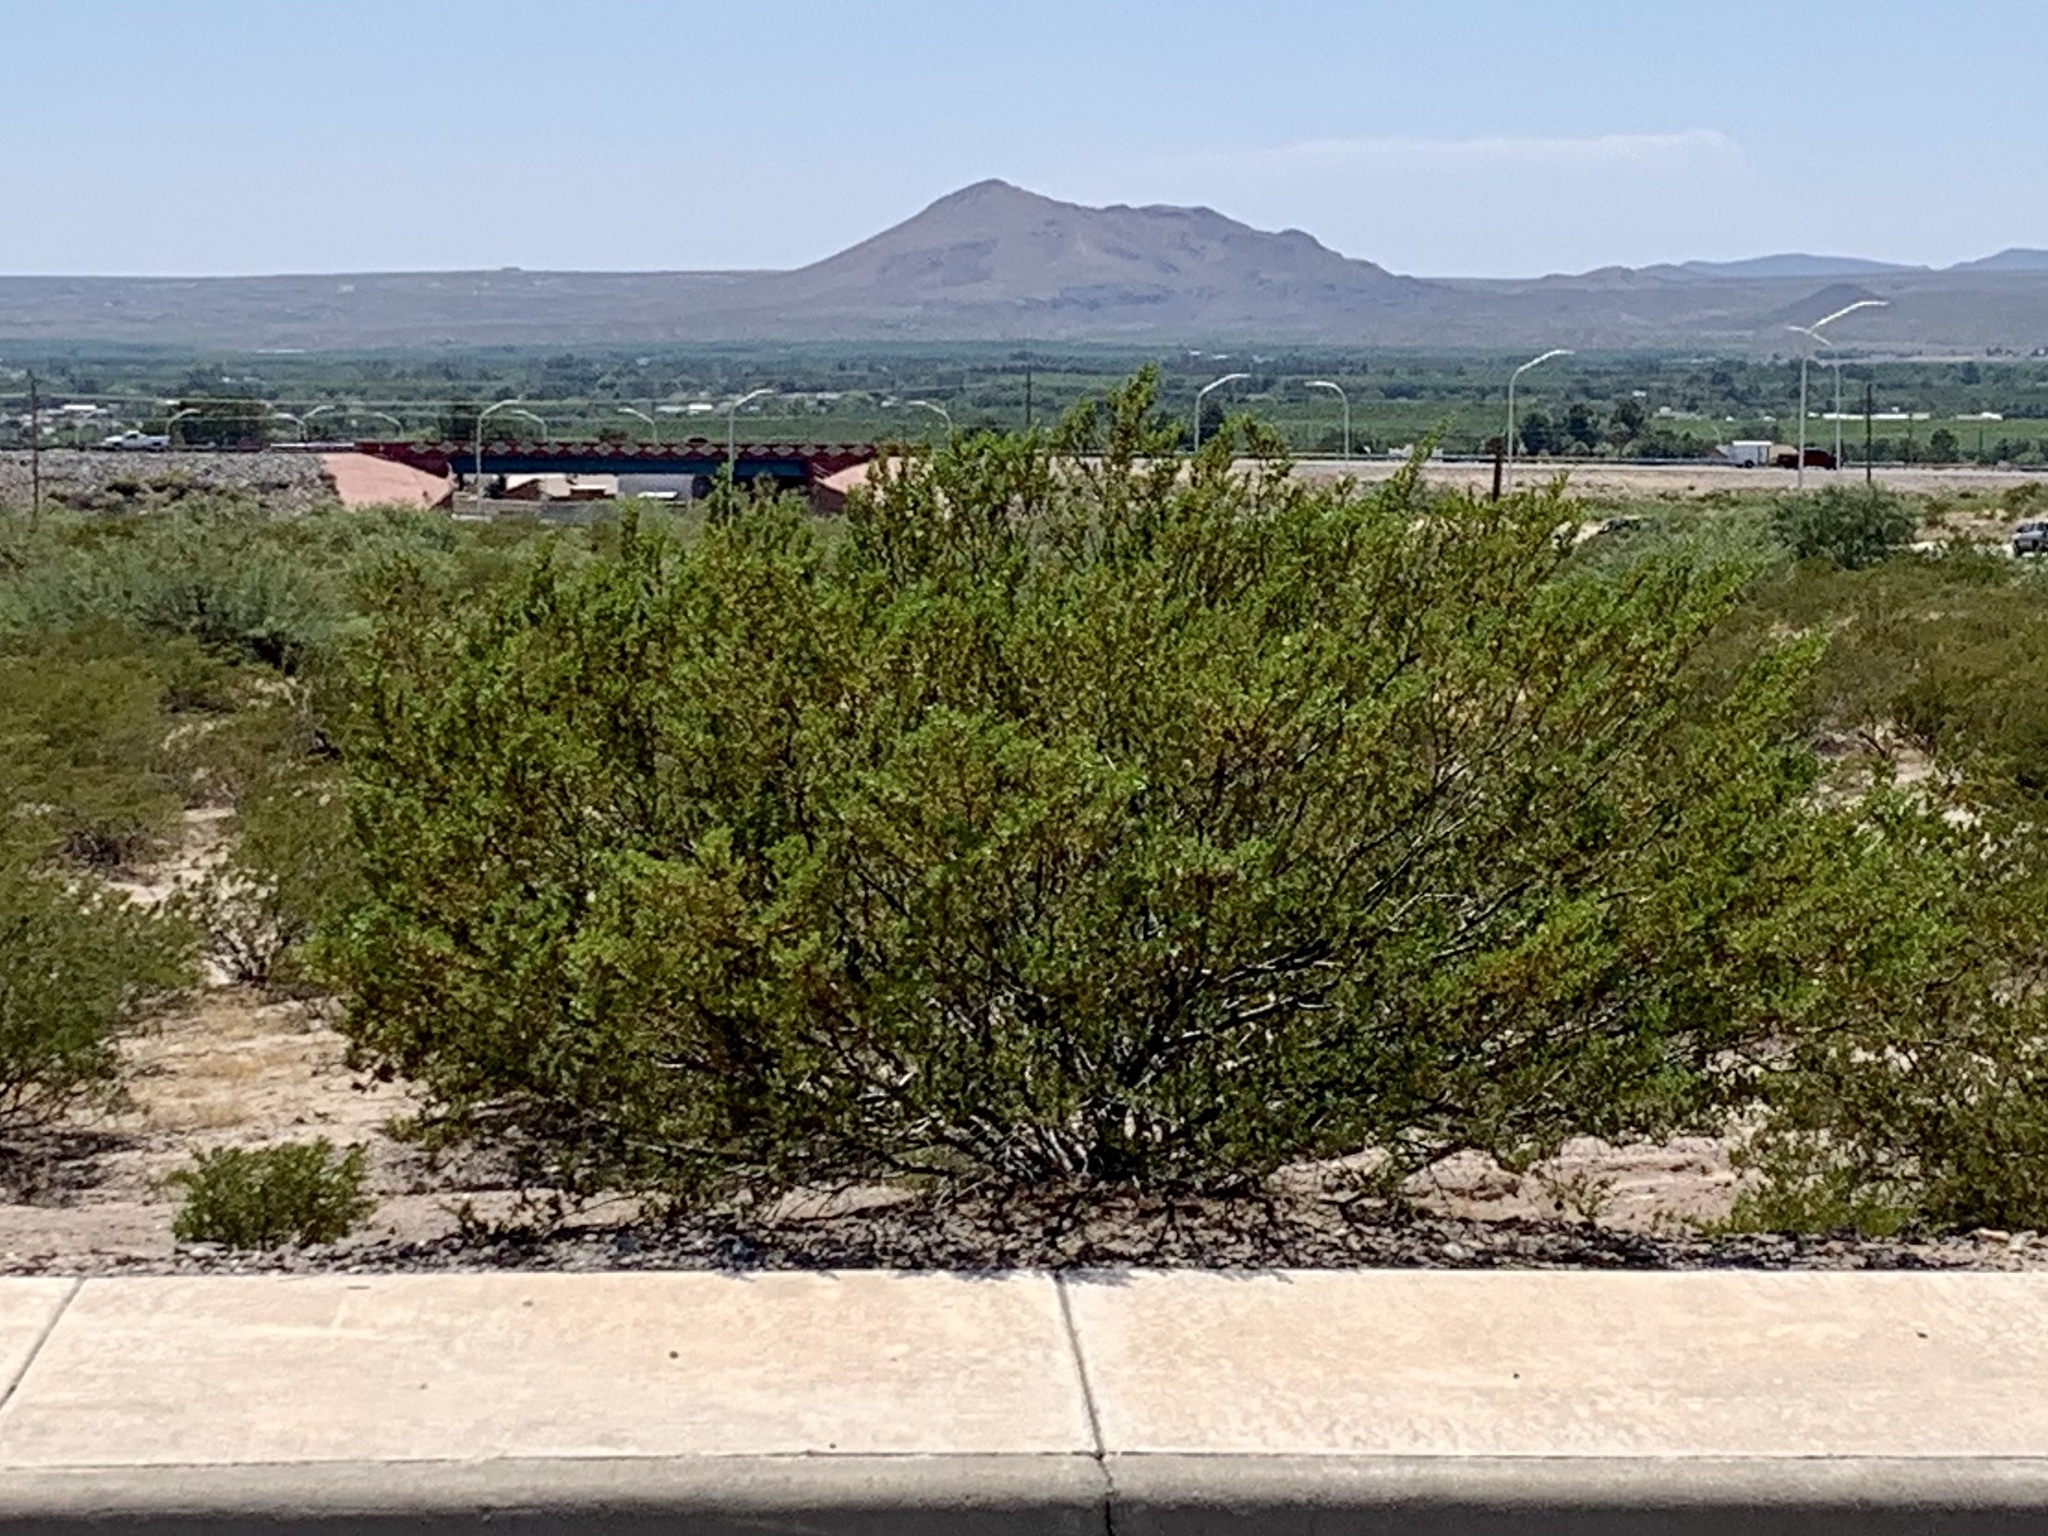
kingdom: Plantae
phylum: Tracheophyta
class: Magnoliopsida
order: Zygophyllales
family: Zygophyllaceae
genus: Larrea
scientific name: Larrea tridentata
